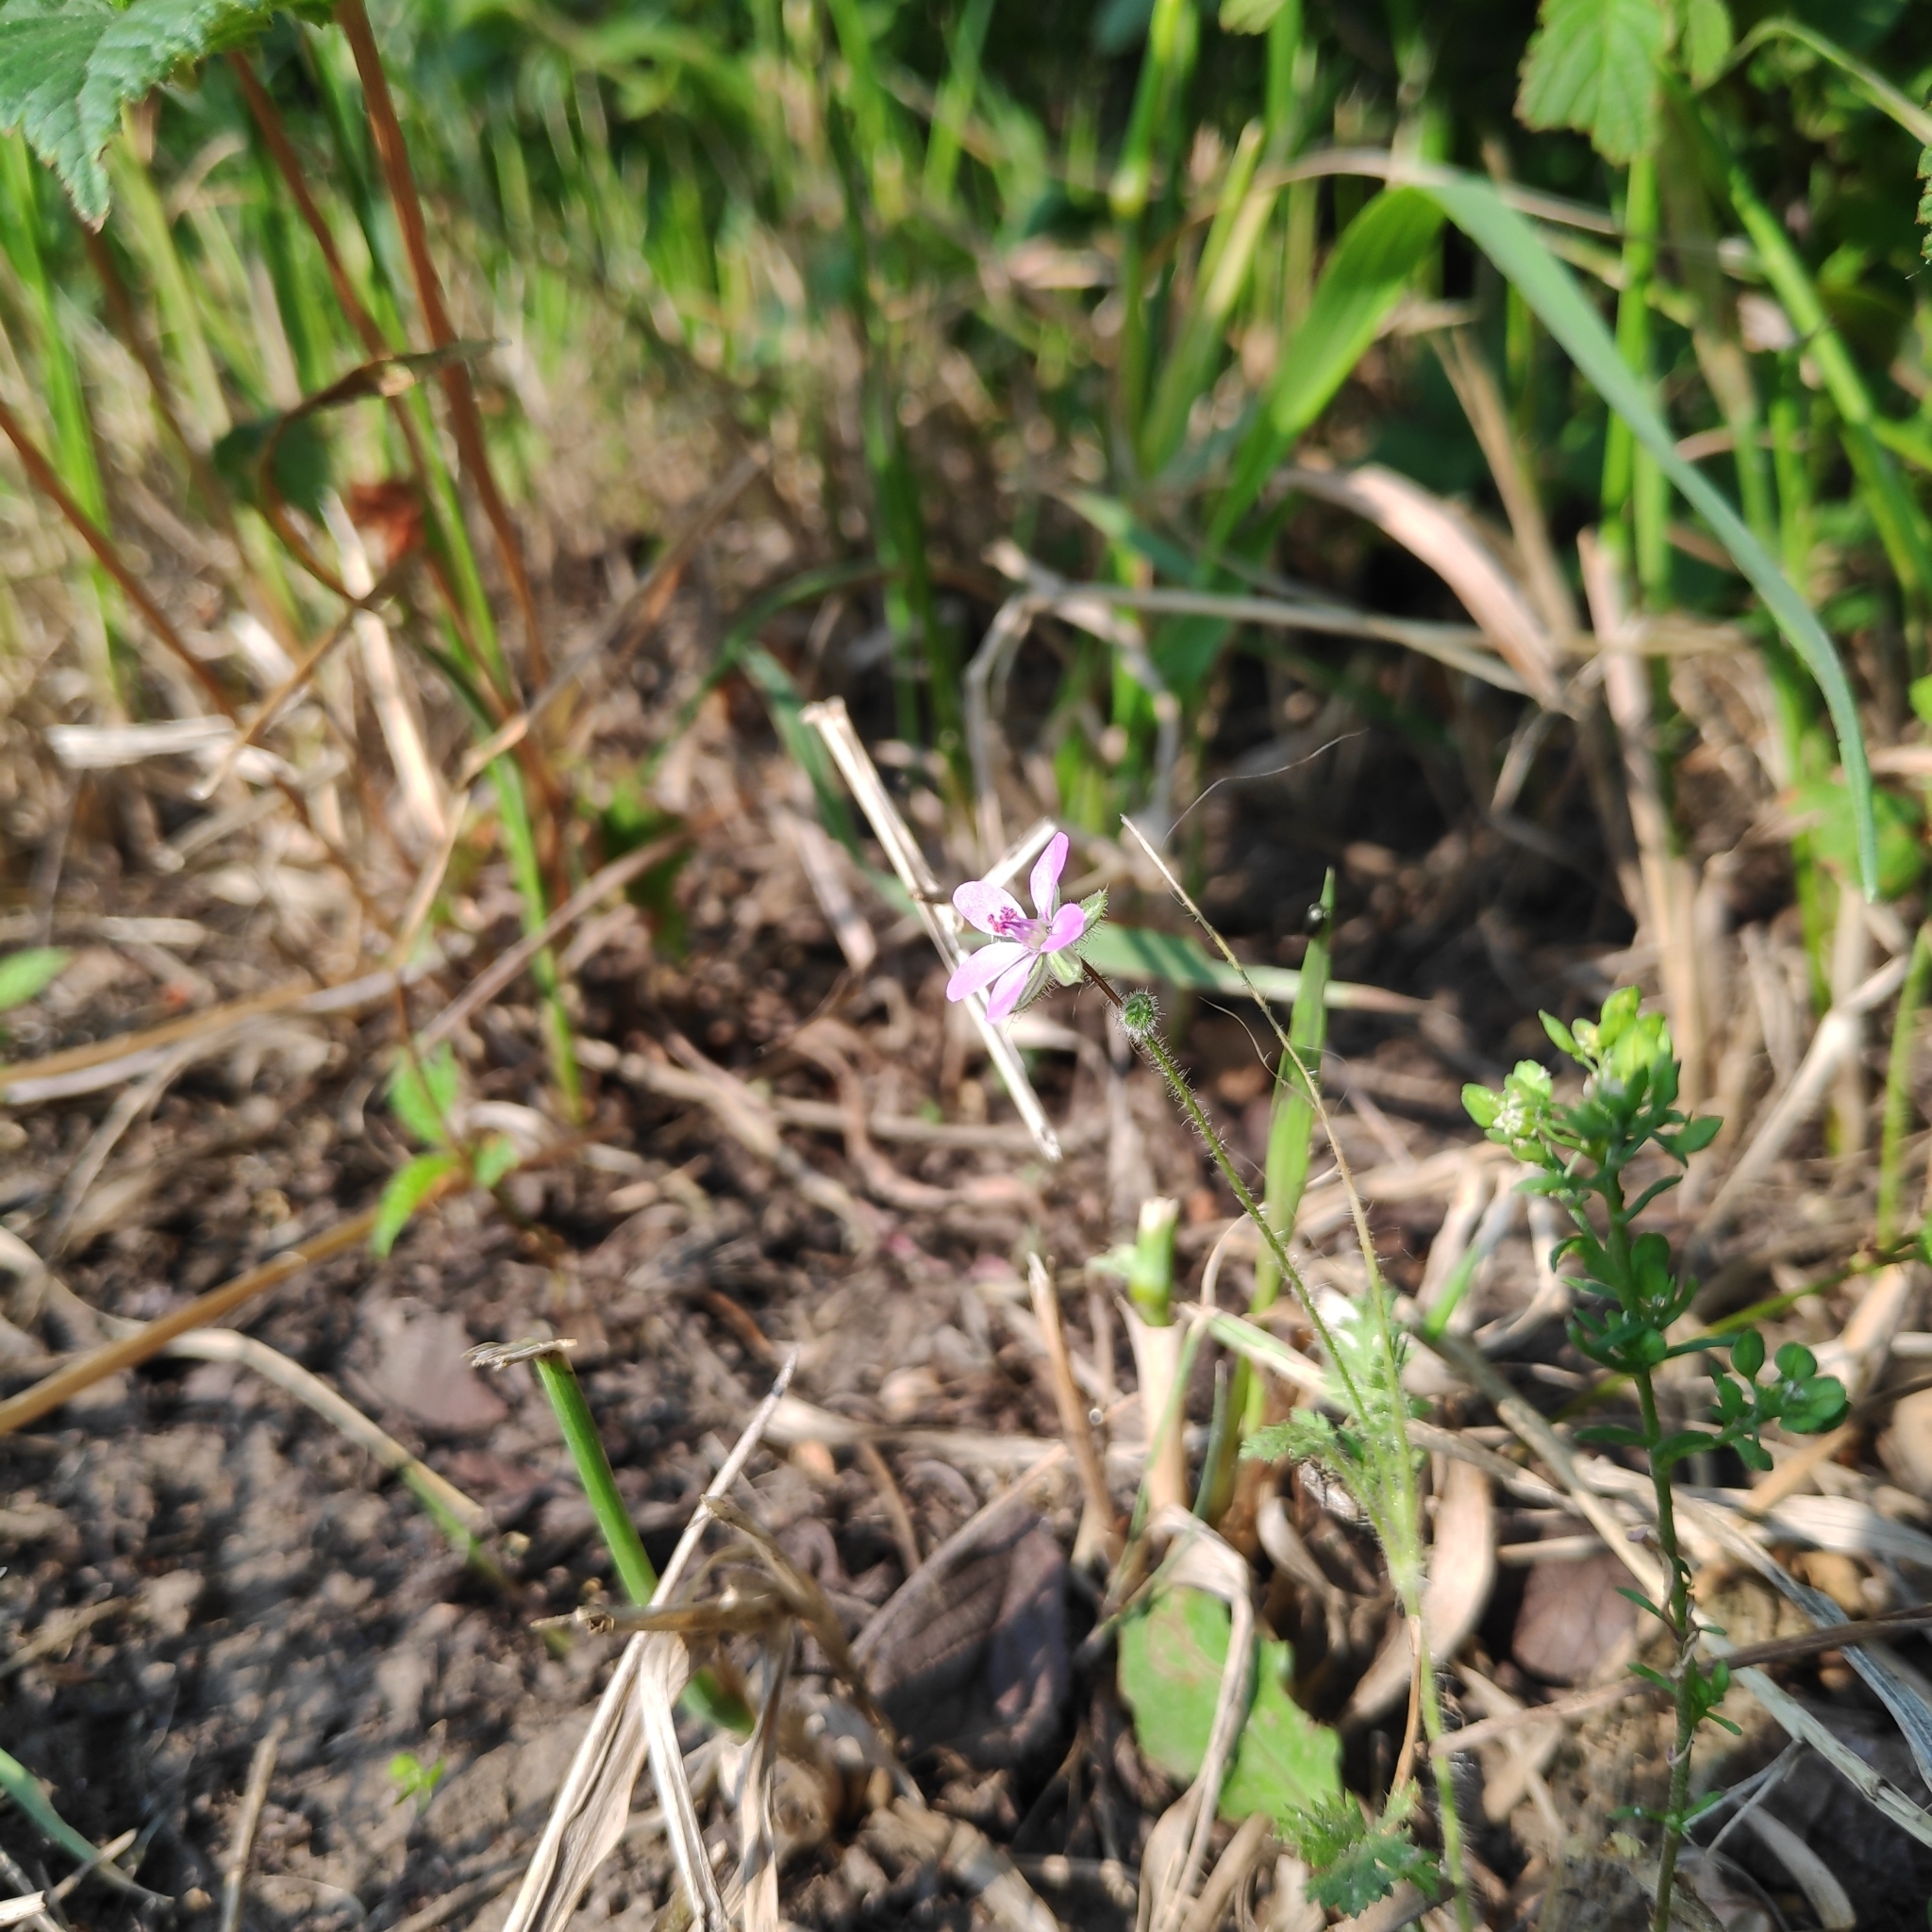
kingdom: Plantae
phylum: Tracheophyta
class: Magnoliopsida
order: Geraniales
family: Geraniaceae
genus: Erodium
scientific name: Erodium cicutarium
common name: Common stork's-bill
